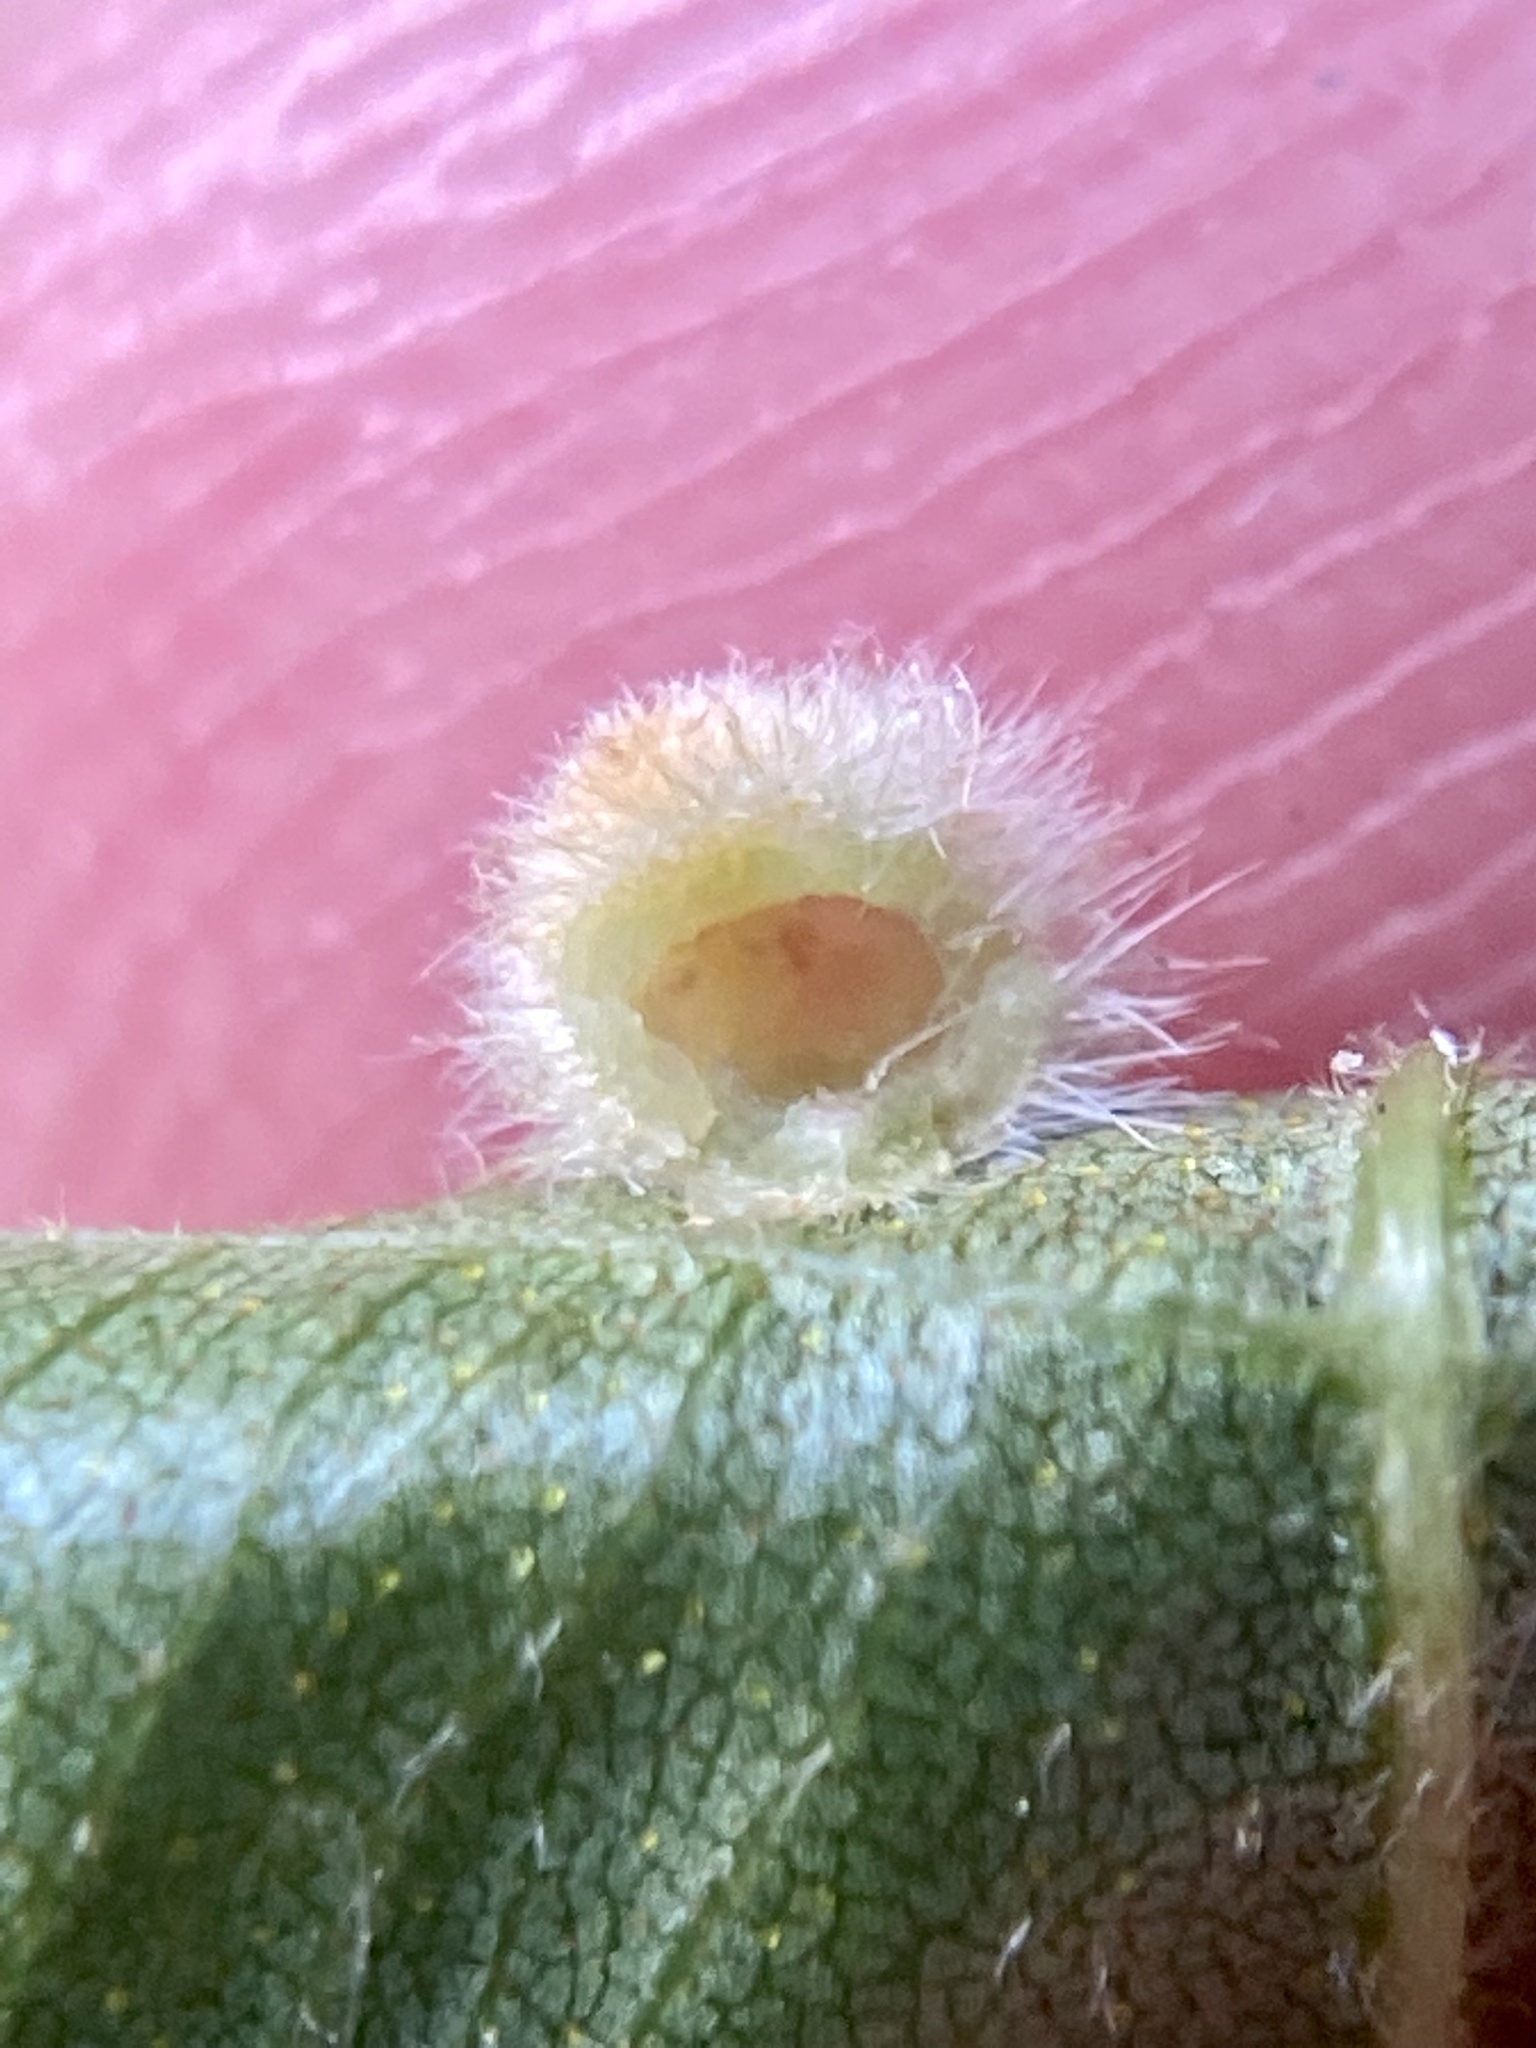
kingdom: Animalia
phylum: Arthropoda
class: Insecta
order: Diptera
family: Cecidomyiidae
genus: Caryomyia
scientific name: Caryomyia purpurea
